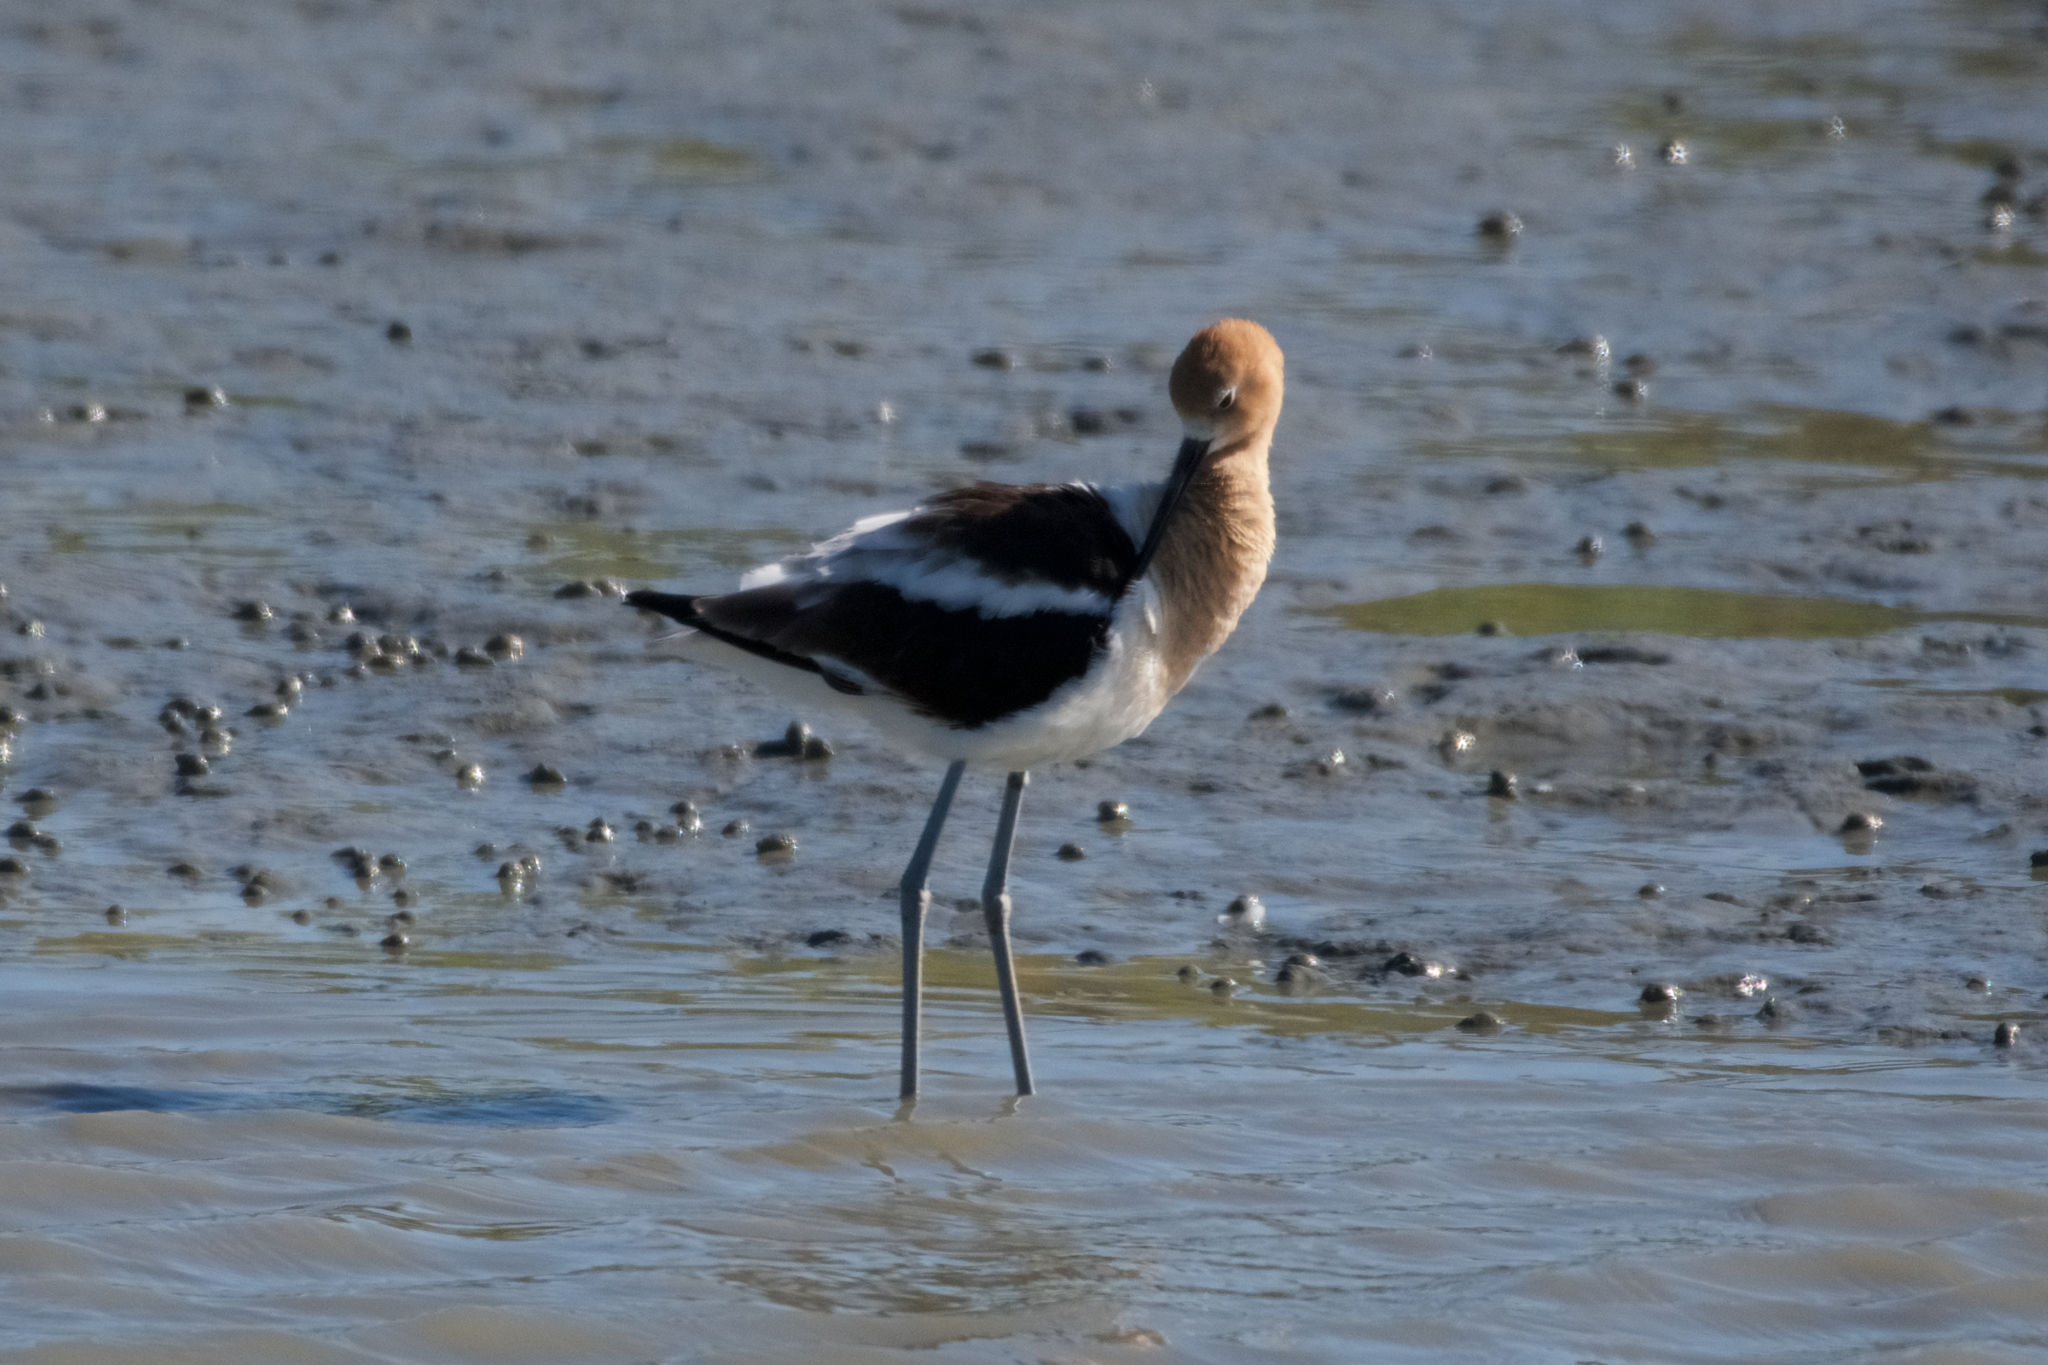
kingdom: Animalia
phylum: Chordata
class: Aves
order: Charadriiformes
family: Recurvirostridae
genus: Recurvirostra
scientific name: Recurvirostra americana
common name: American avocet
